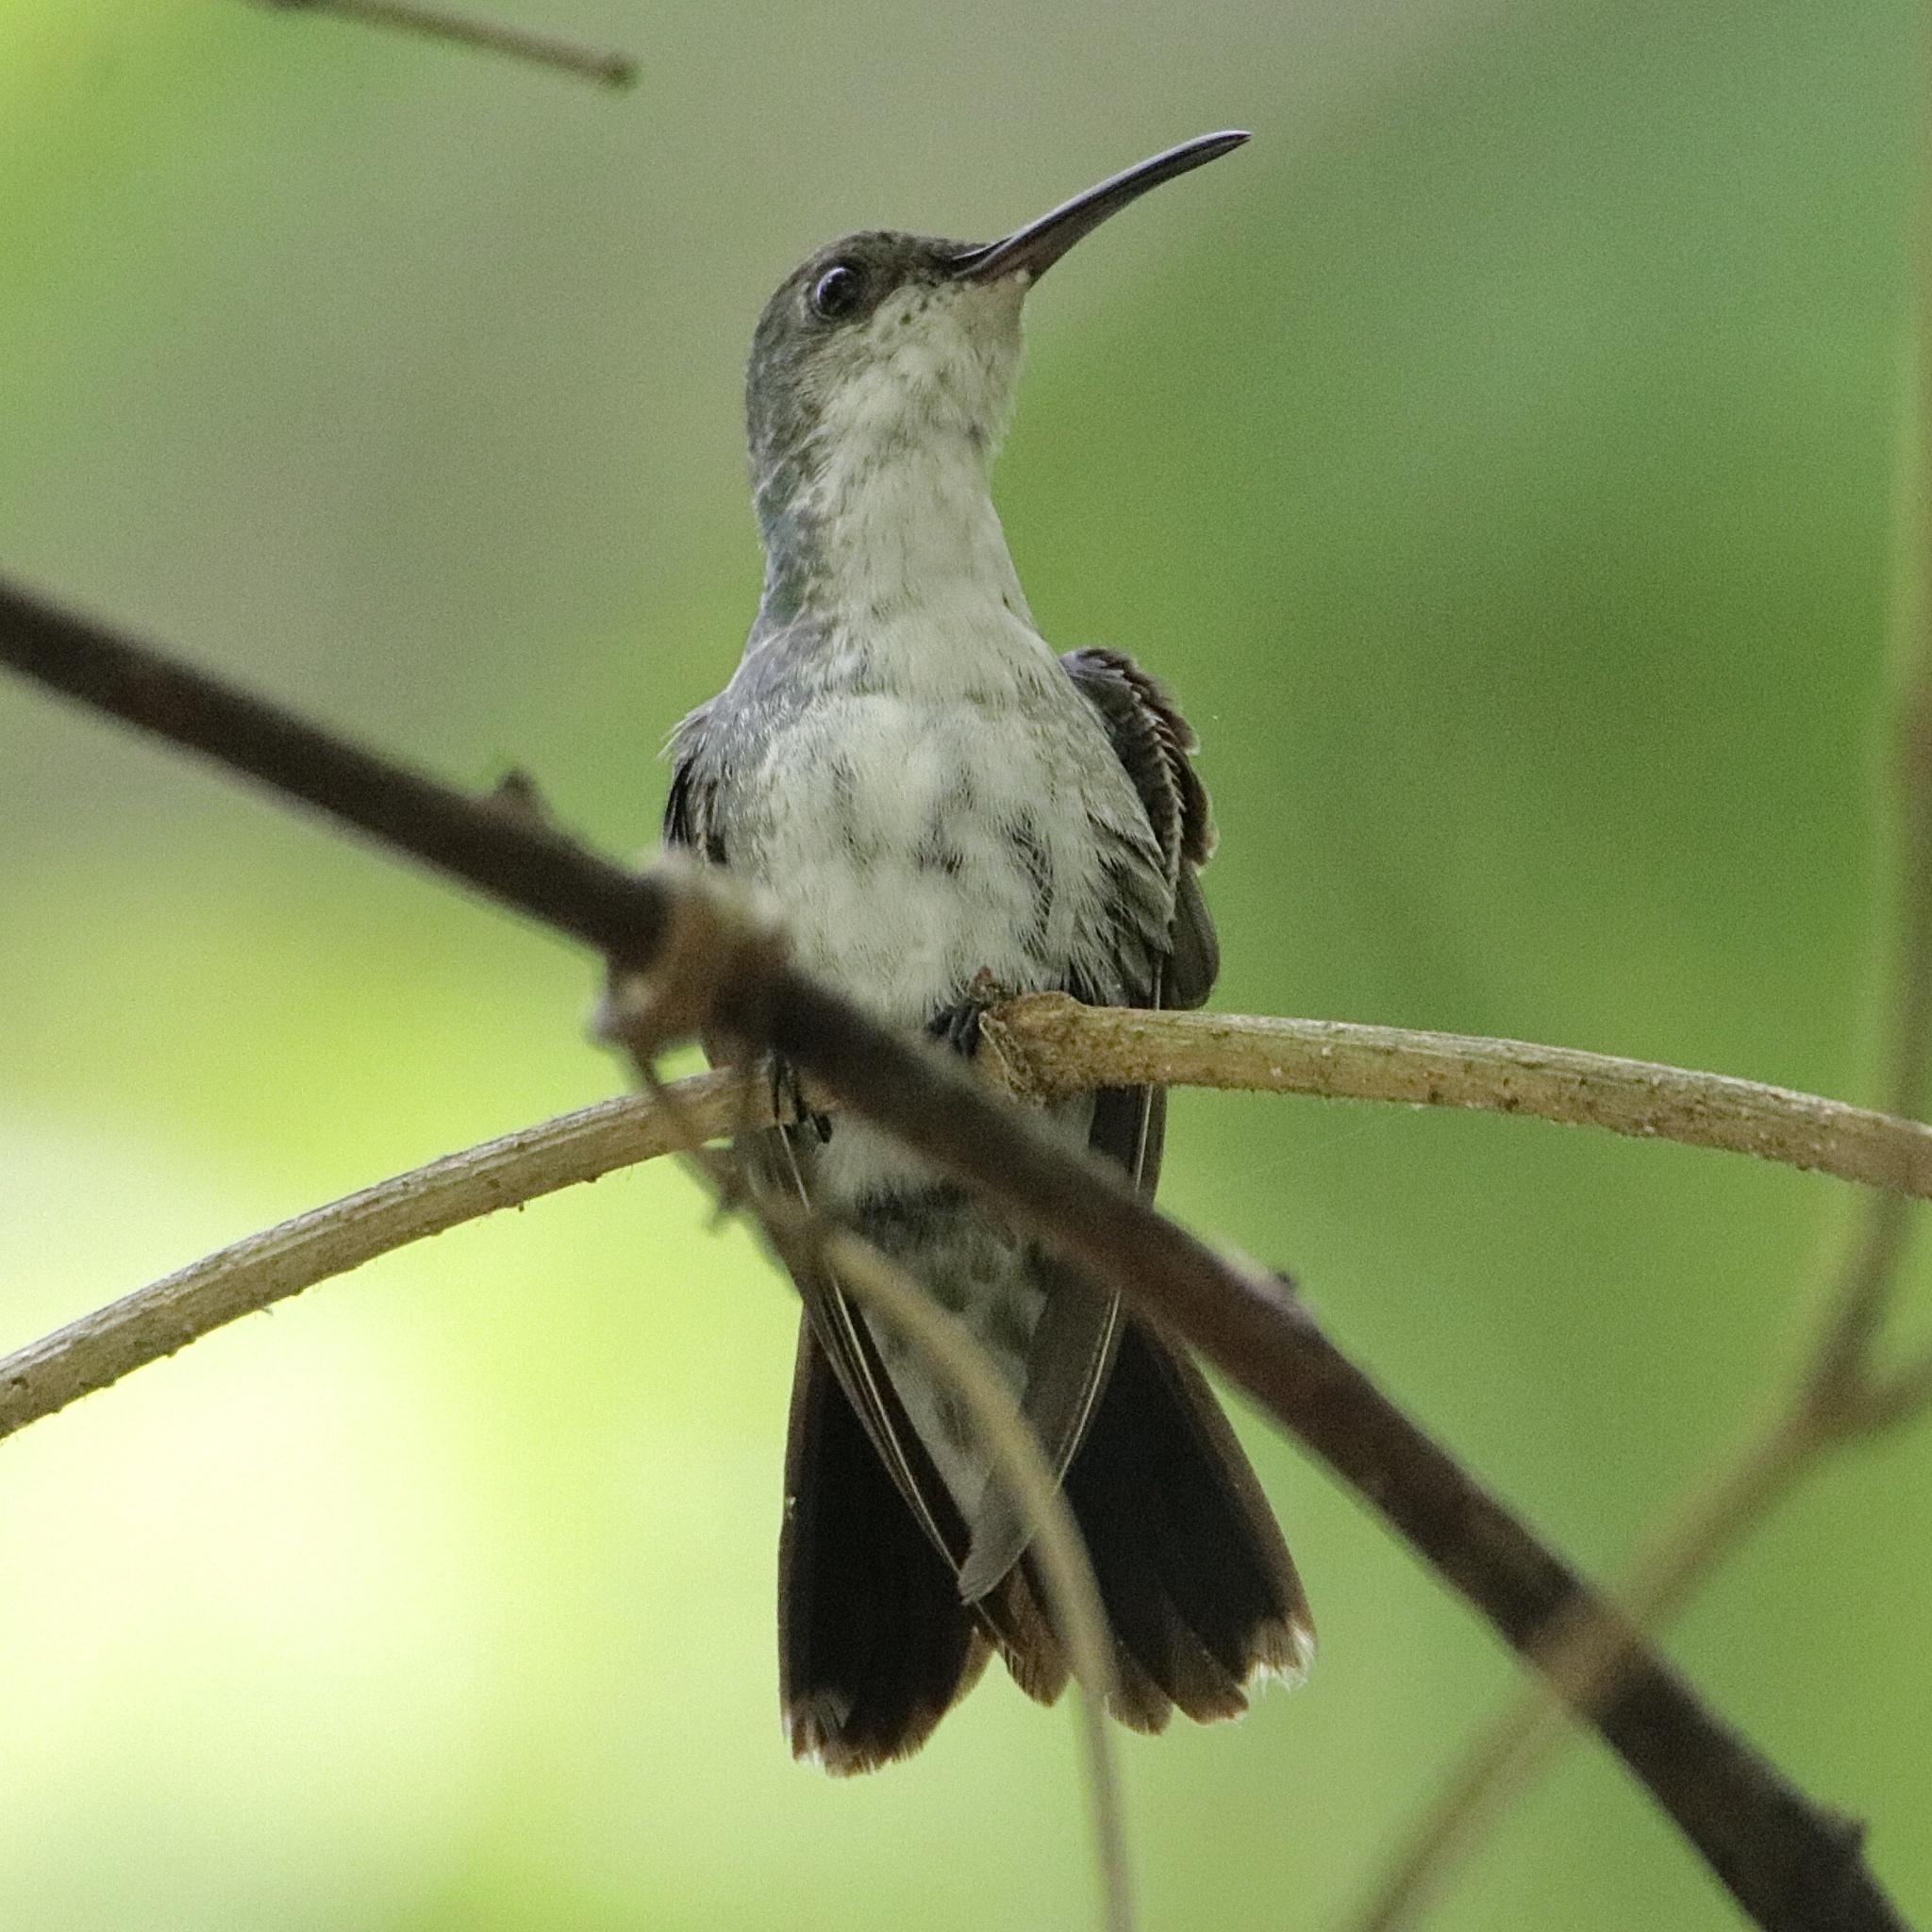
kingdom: Animalia
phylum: Chordata
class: Aves
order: Apodiformes
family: Trochilidae
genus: Chrysuronia
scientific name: Chrysuronia coeruleogularis
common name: Sapphire-throated hummingbird
